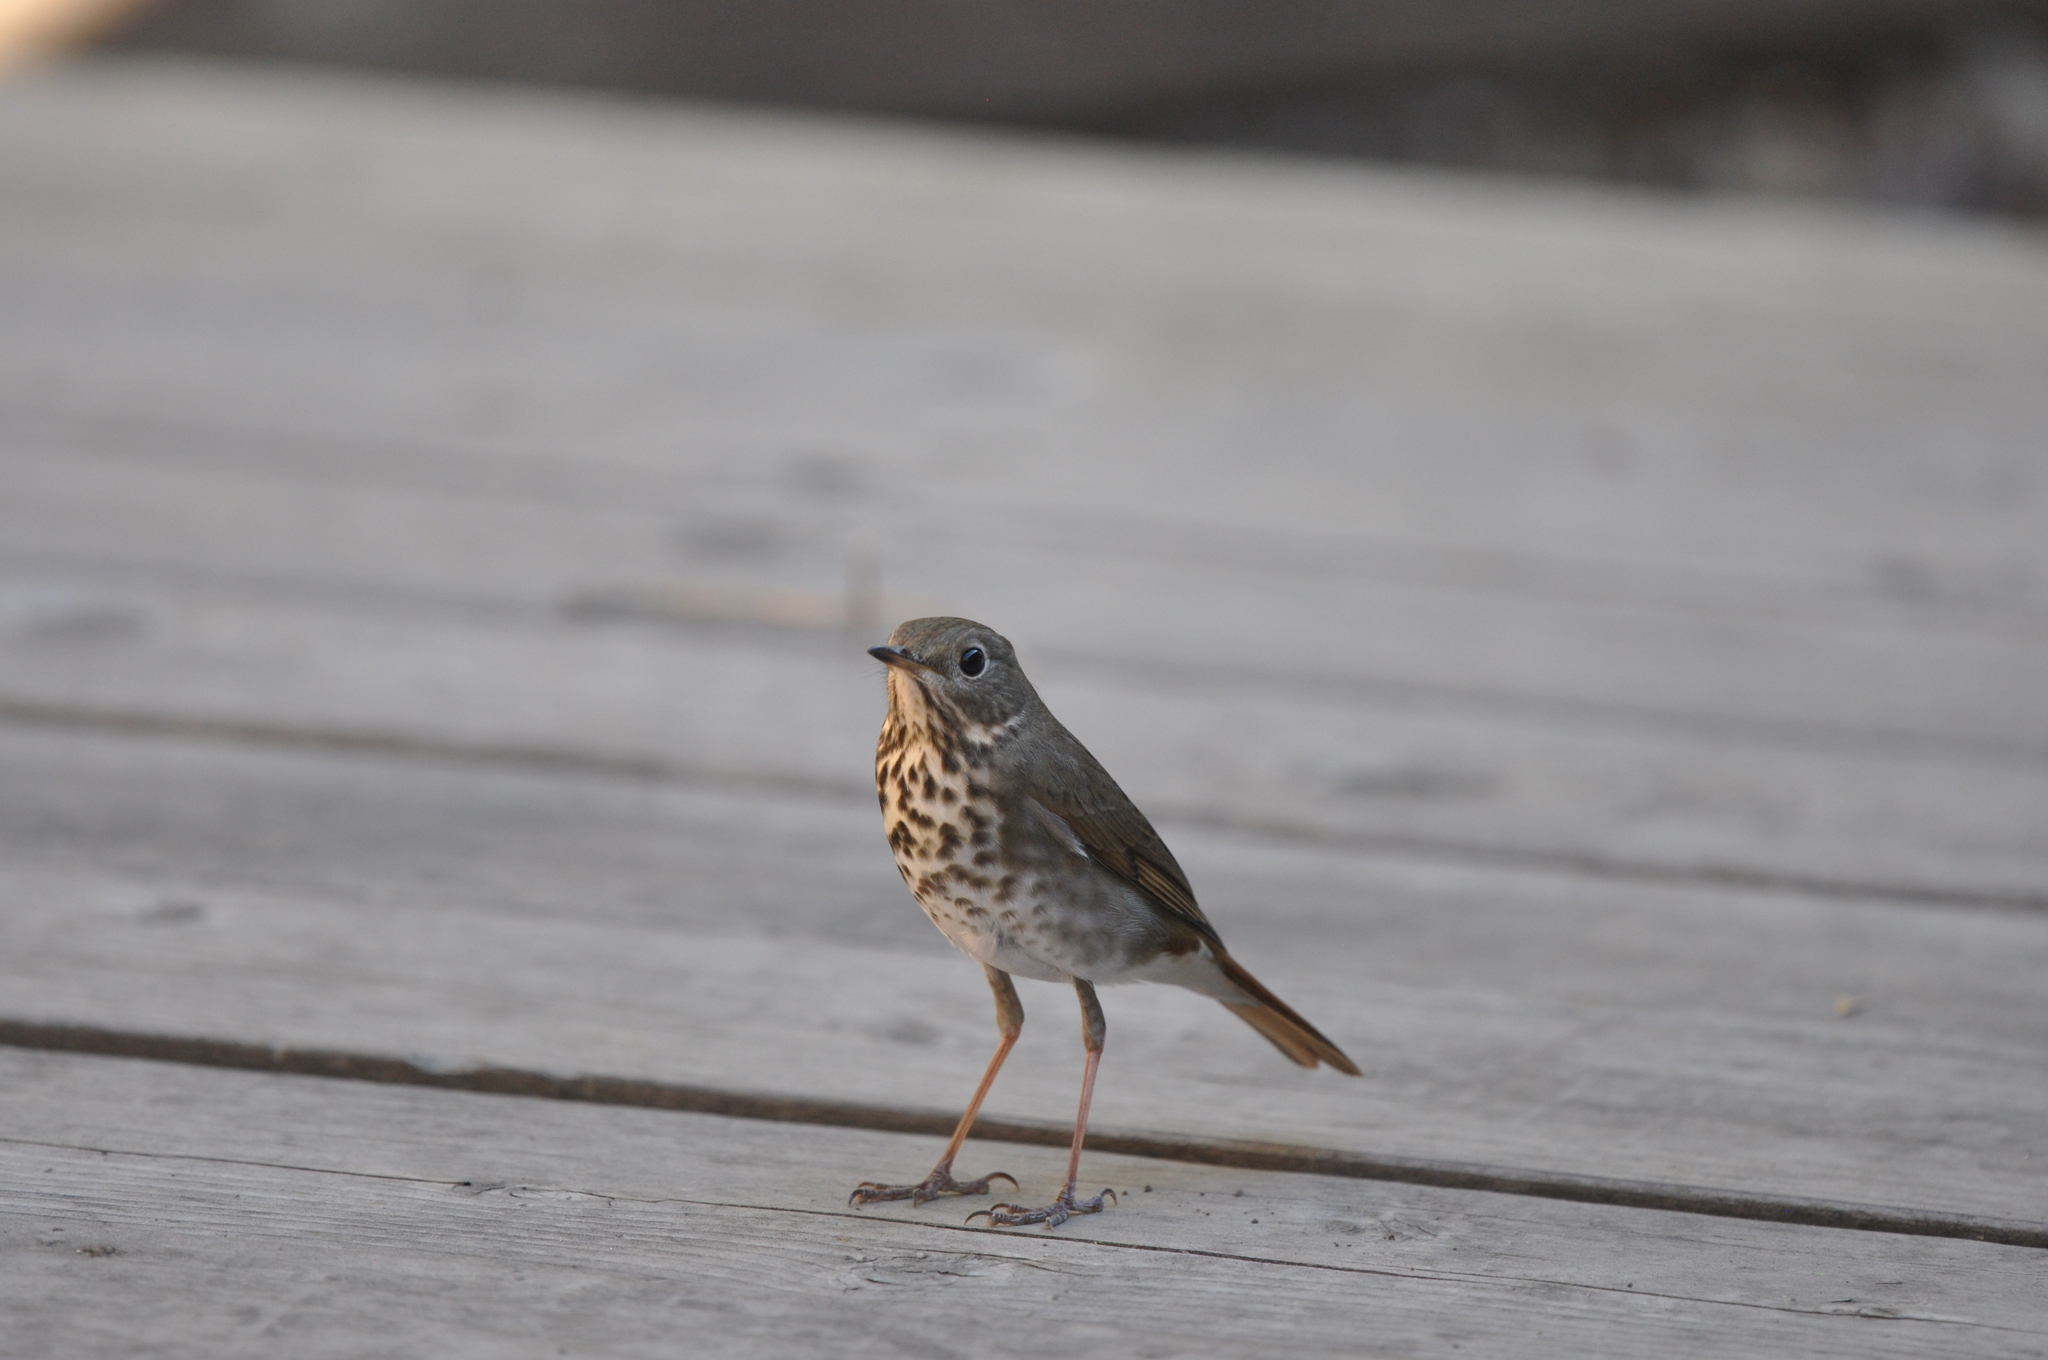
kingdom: Animalia
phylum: Chordata
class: Aves
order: Passeriformes
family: Turdidae
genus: Catharus
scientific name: Catharus guttatus
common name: Hermit thrush
